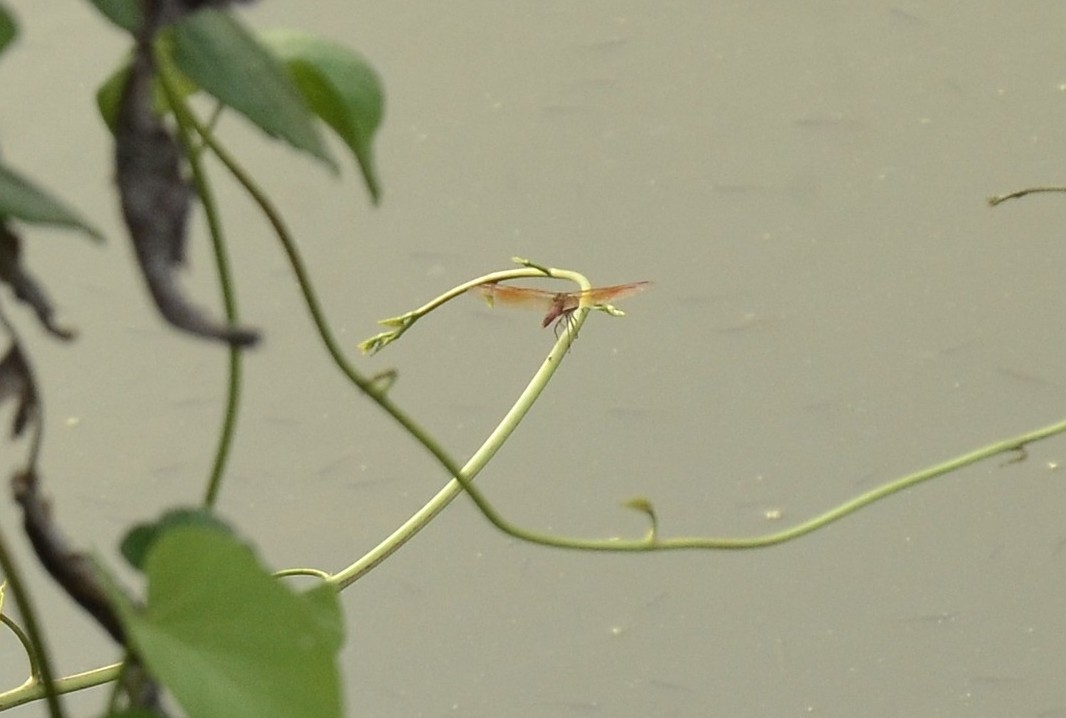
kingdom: Animalia
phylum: Arthropoda
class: Insecta
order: Odonata
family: Libellulidae
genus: Brachythemis
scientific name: Brachythemis contaminata
